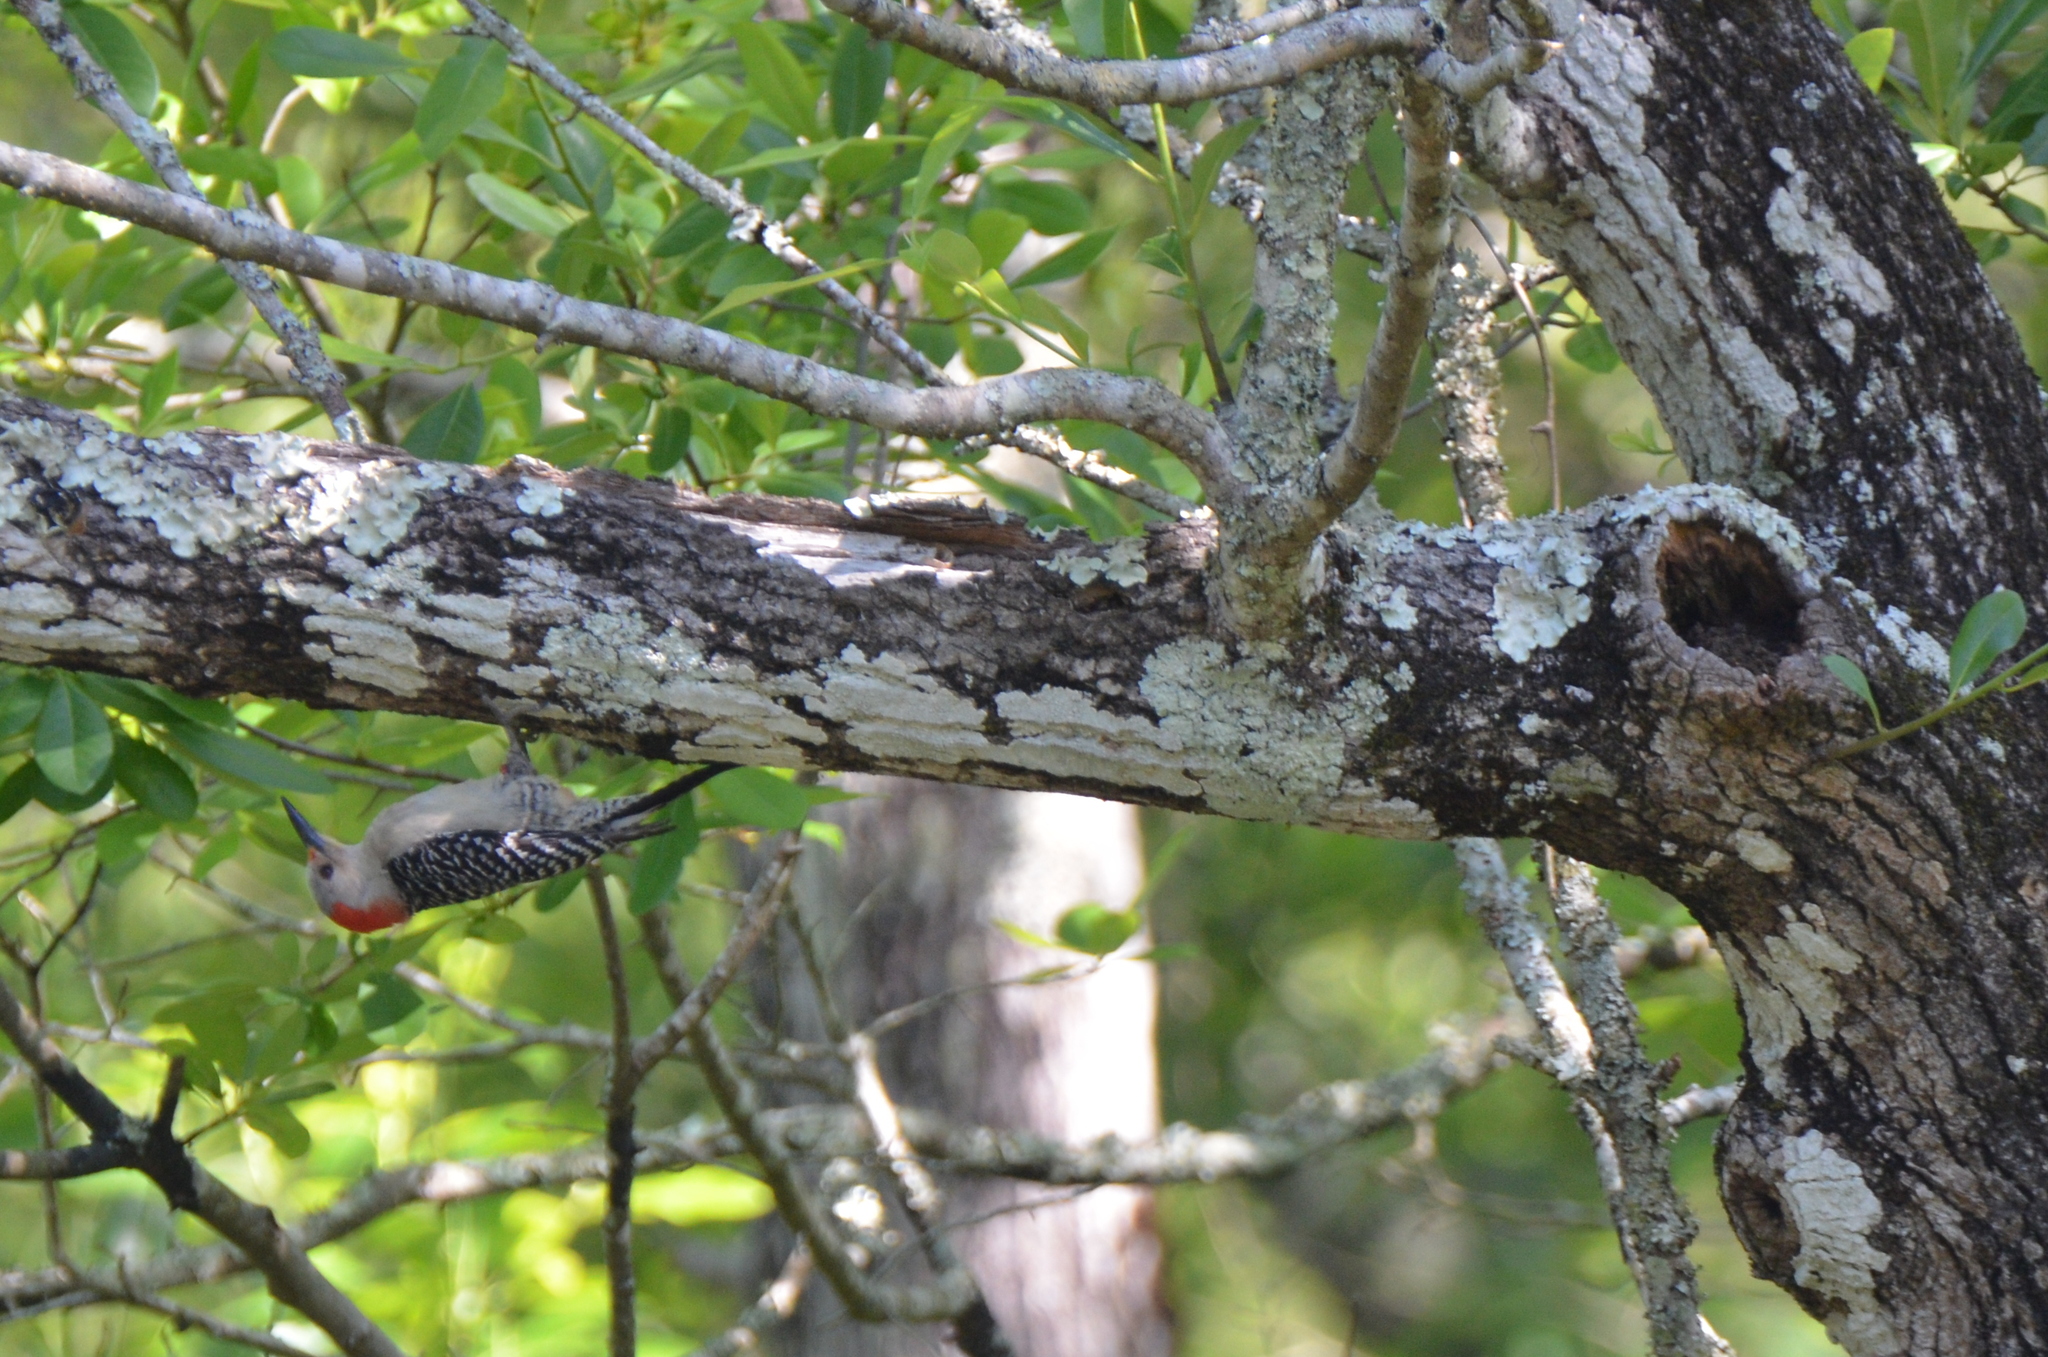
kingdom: Animalia
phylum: Chordata
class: Aves
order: Piciformes
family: Picidae
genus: Melanerpes
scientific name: Melanerpes carolinus
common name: Red-bellied woodpecker
